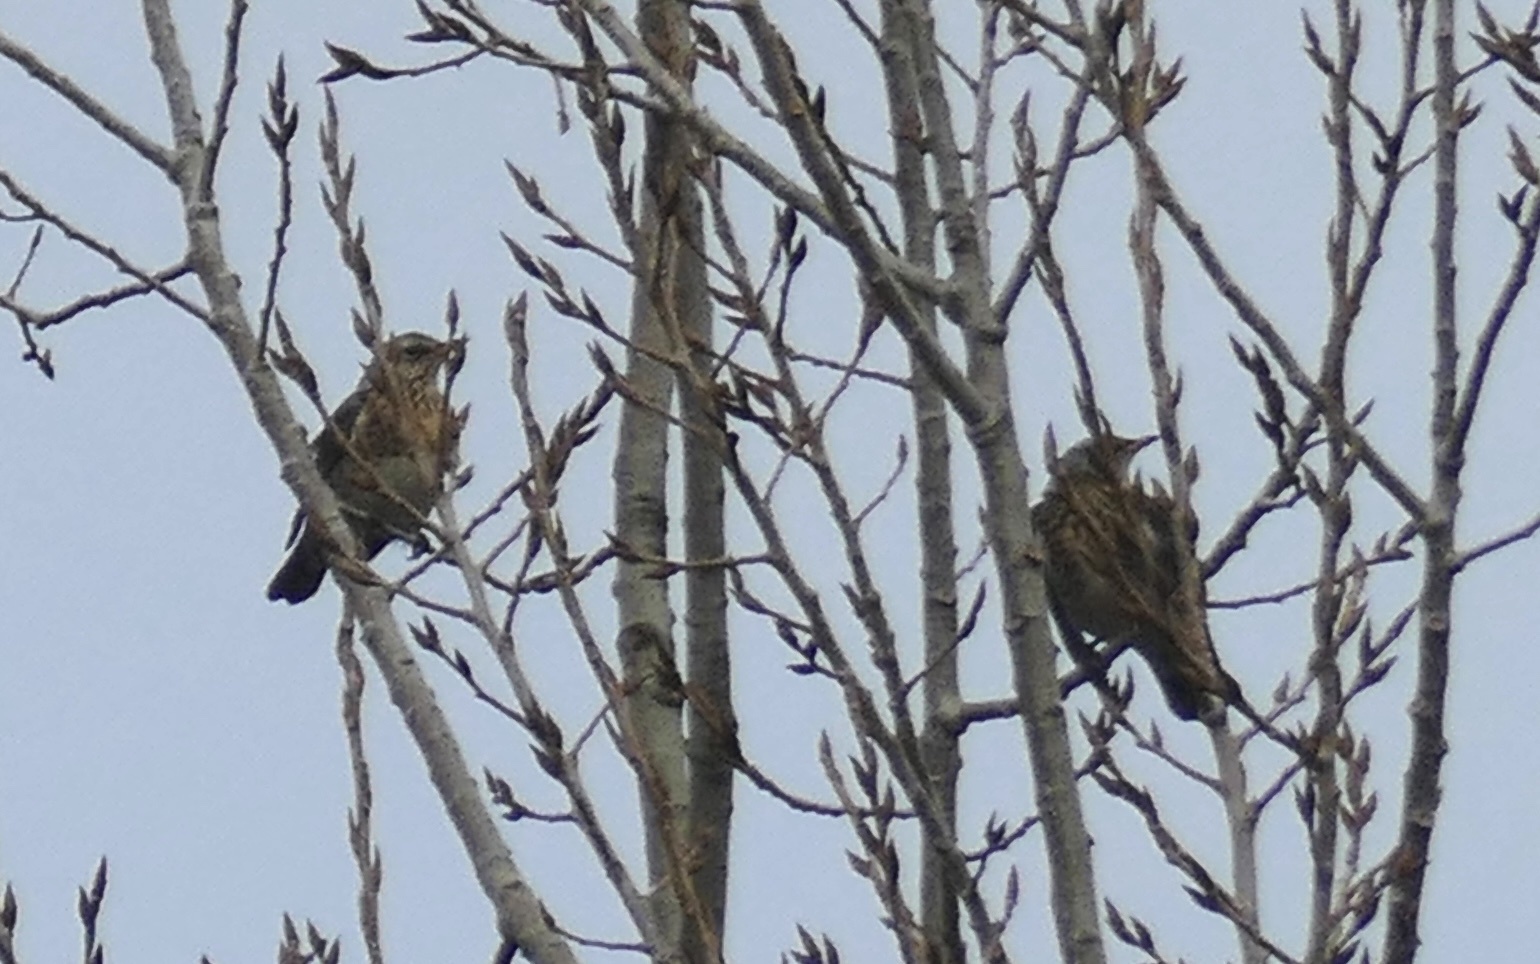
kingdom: Animalia
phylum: Chordata
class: Aves
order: Passeriformes
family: Turdidae
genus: Turdus
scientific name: Turdus pilaris
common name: Fieldfare
